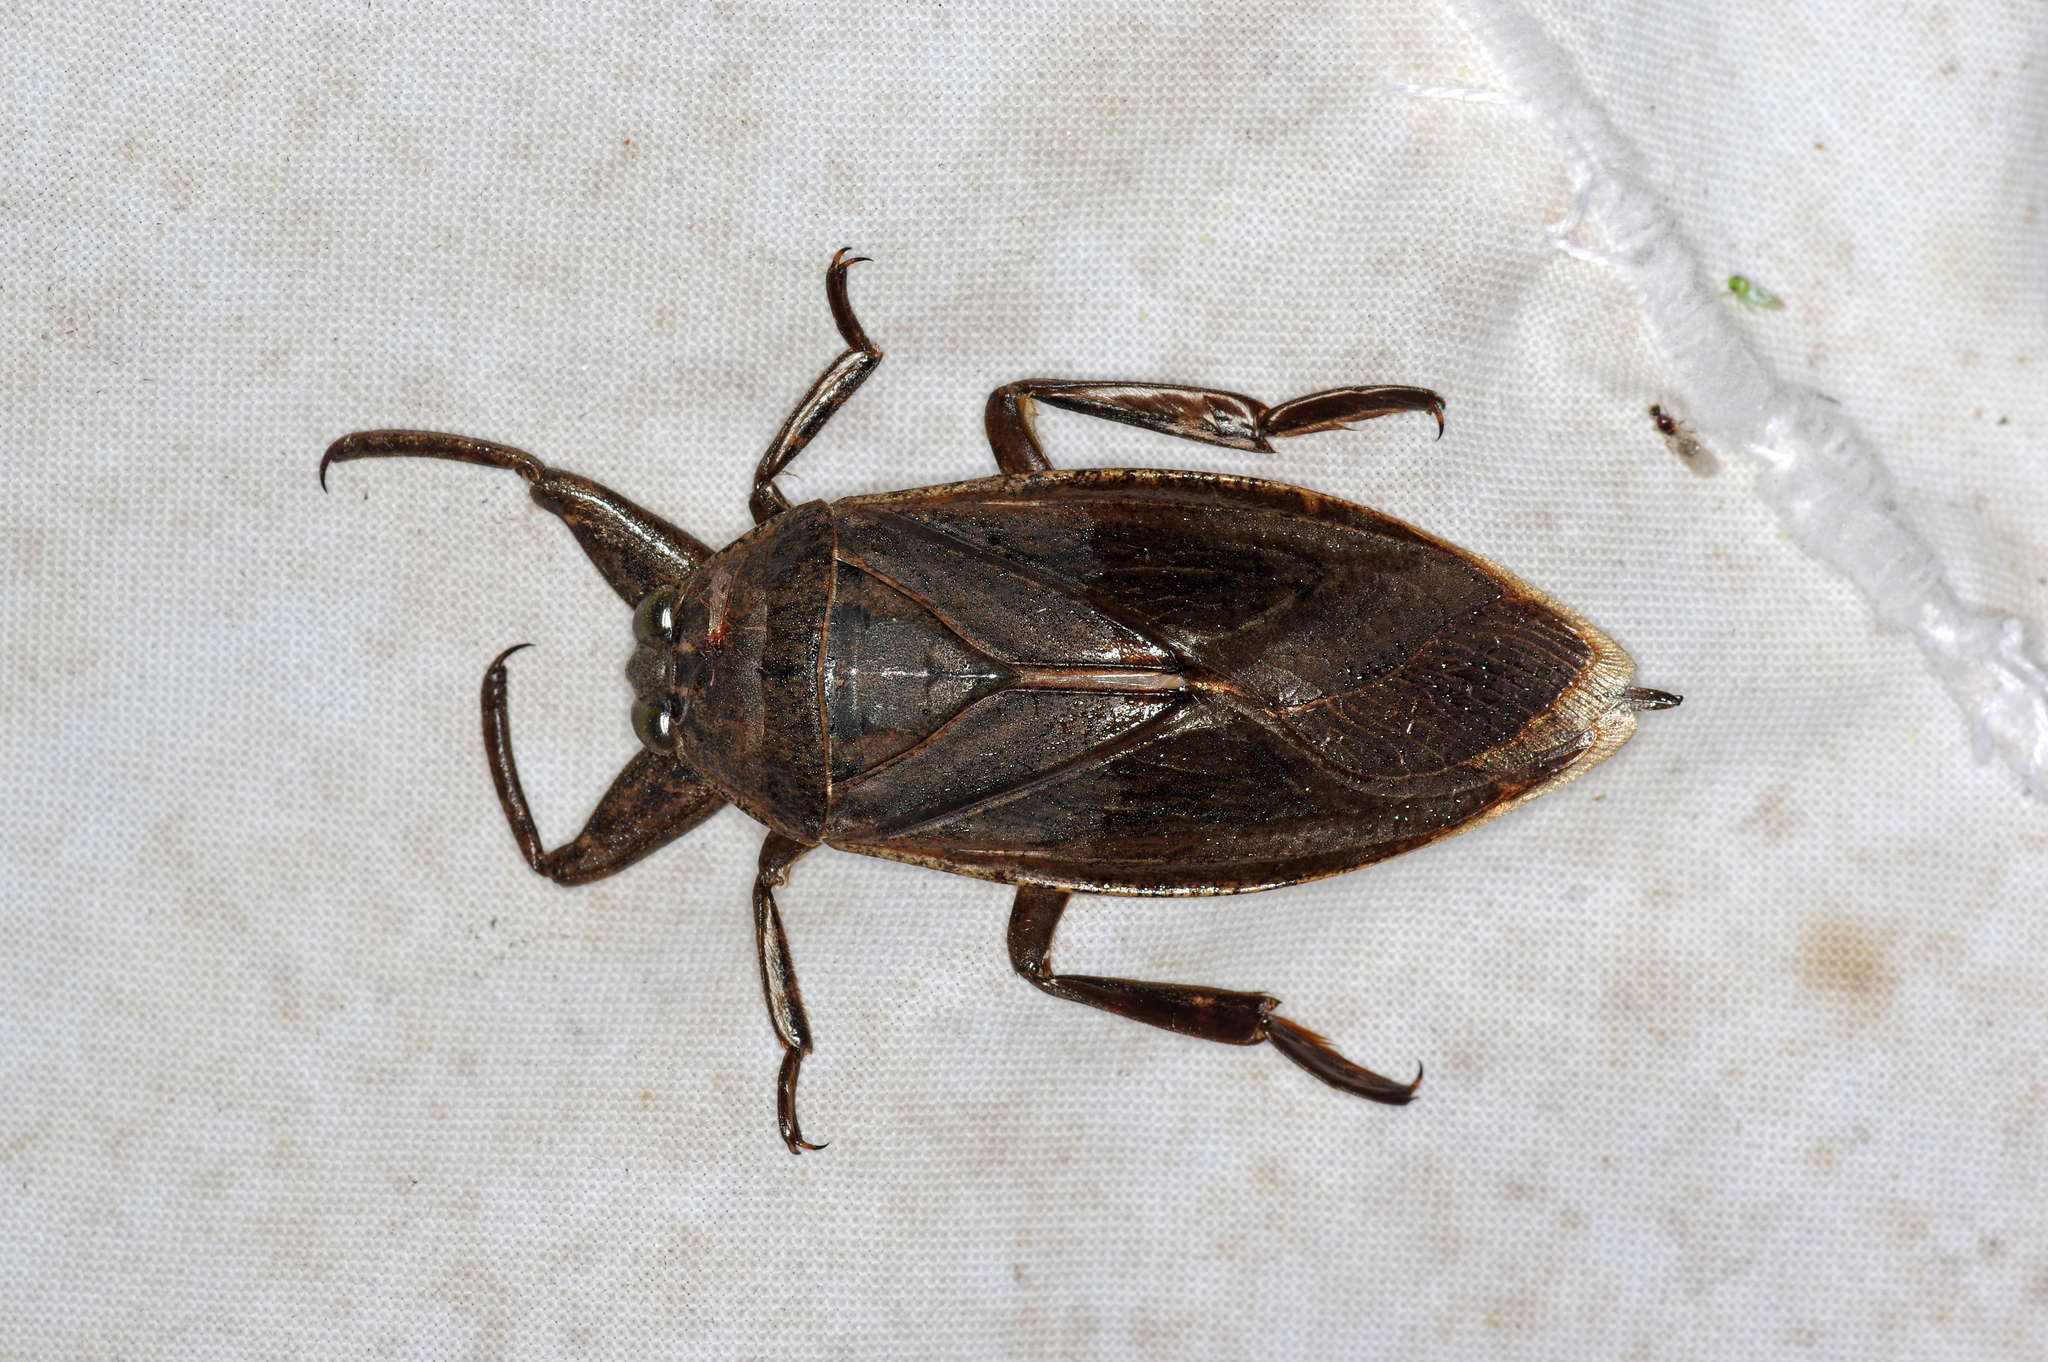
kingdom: Animalia
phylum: Arthropoda
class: Insecta
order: Hemiptera
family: Belostomatidae
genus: Lethocerus
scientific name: Lethocerus americanus
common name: Giant water bug
